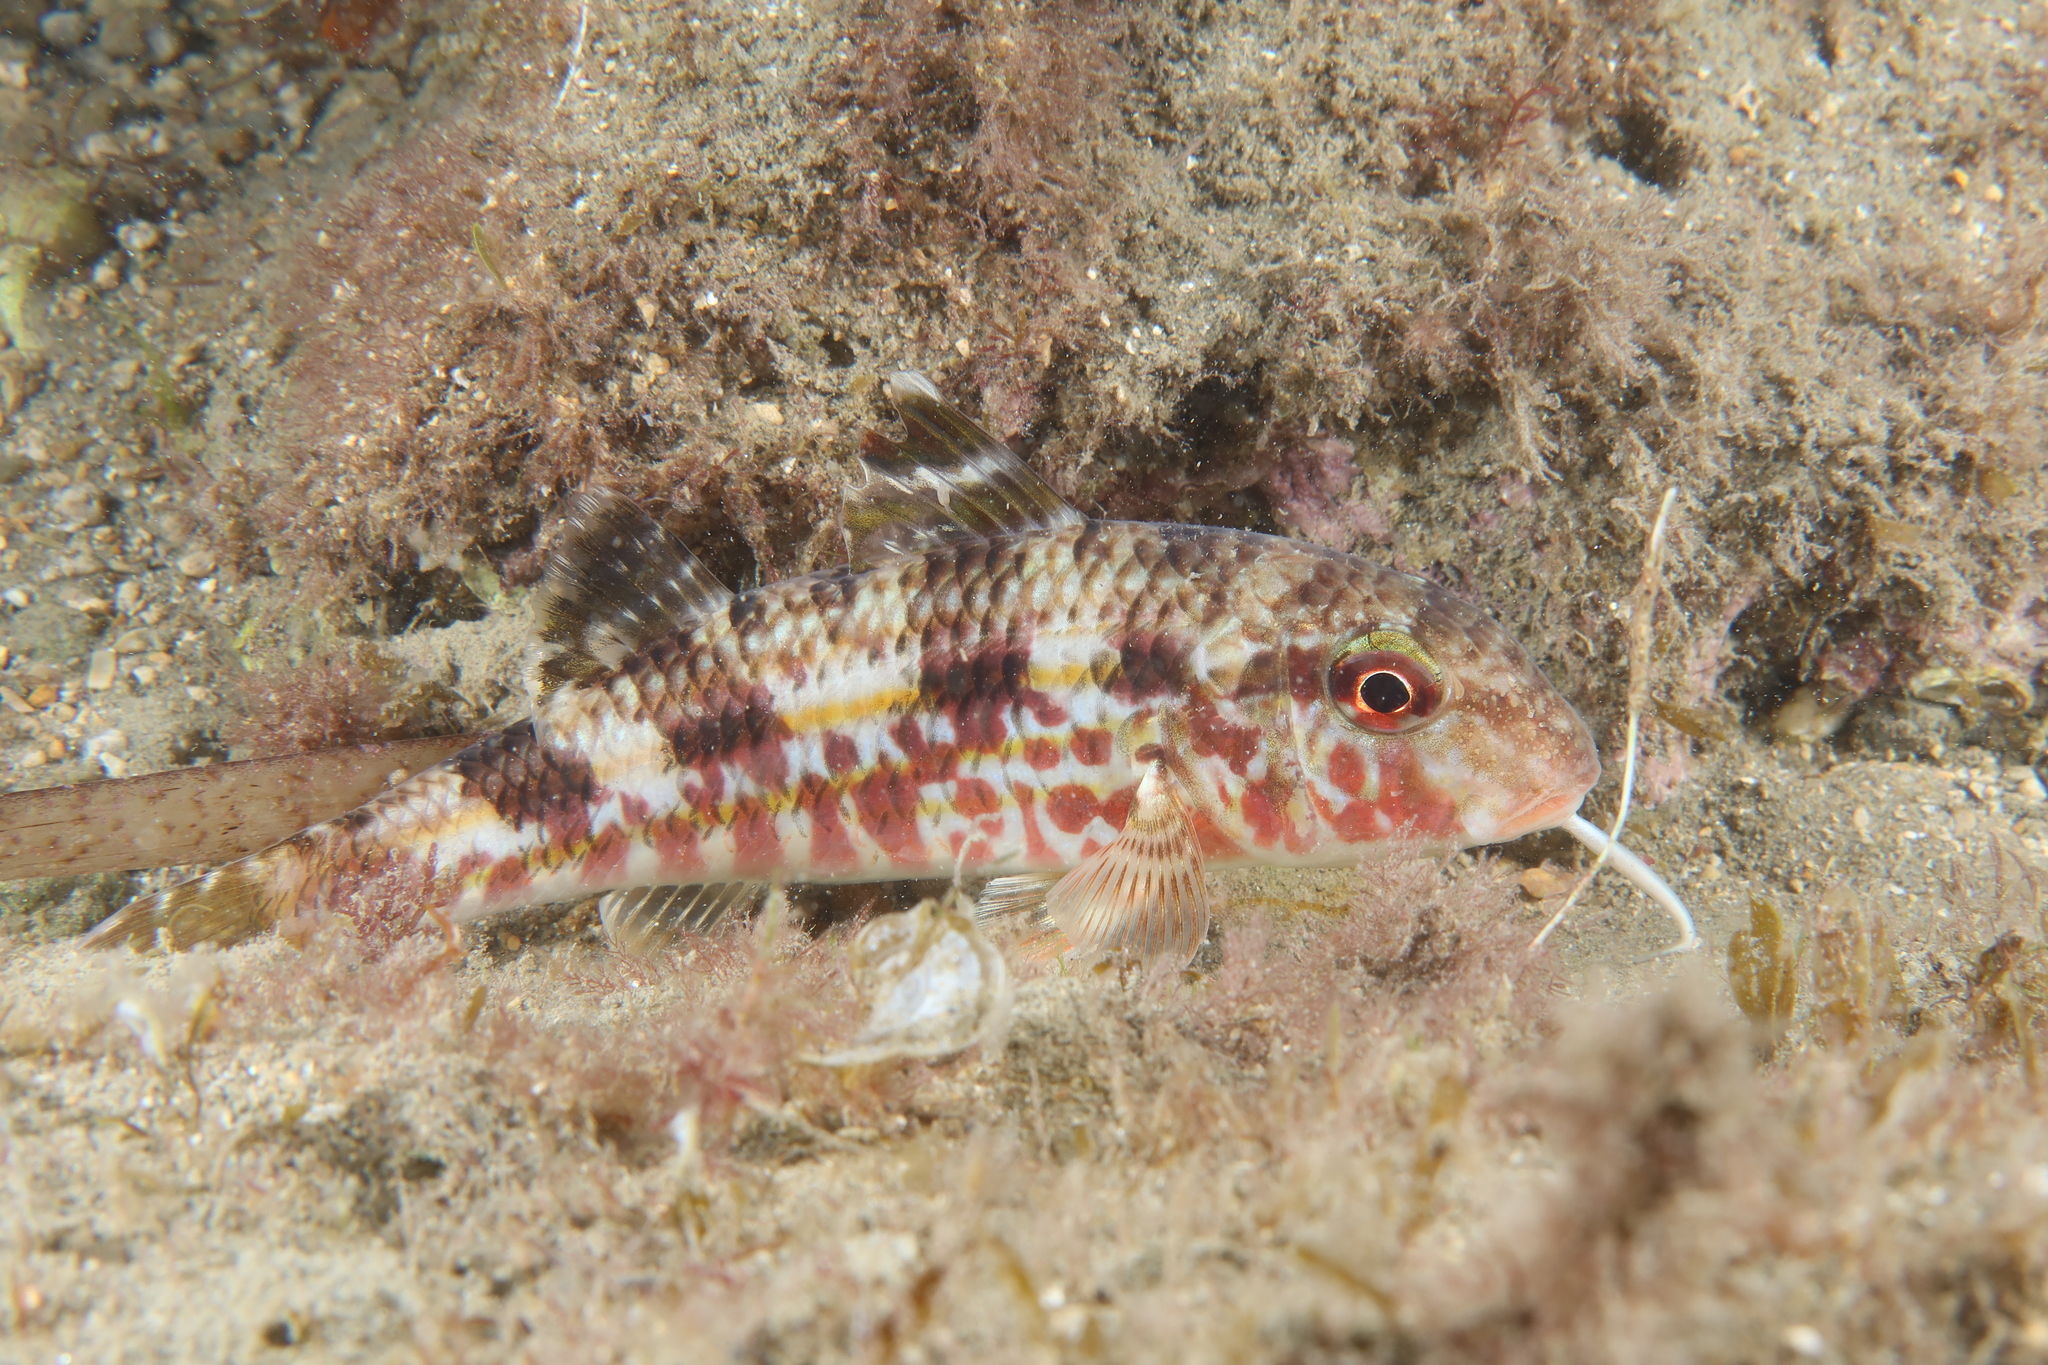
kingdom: Animalia
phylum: Chordata
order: Perciformes
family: Mullidae
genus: Mullus
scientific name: Mullus surmuletus
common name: Red mullet
